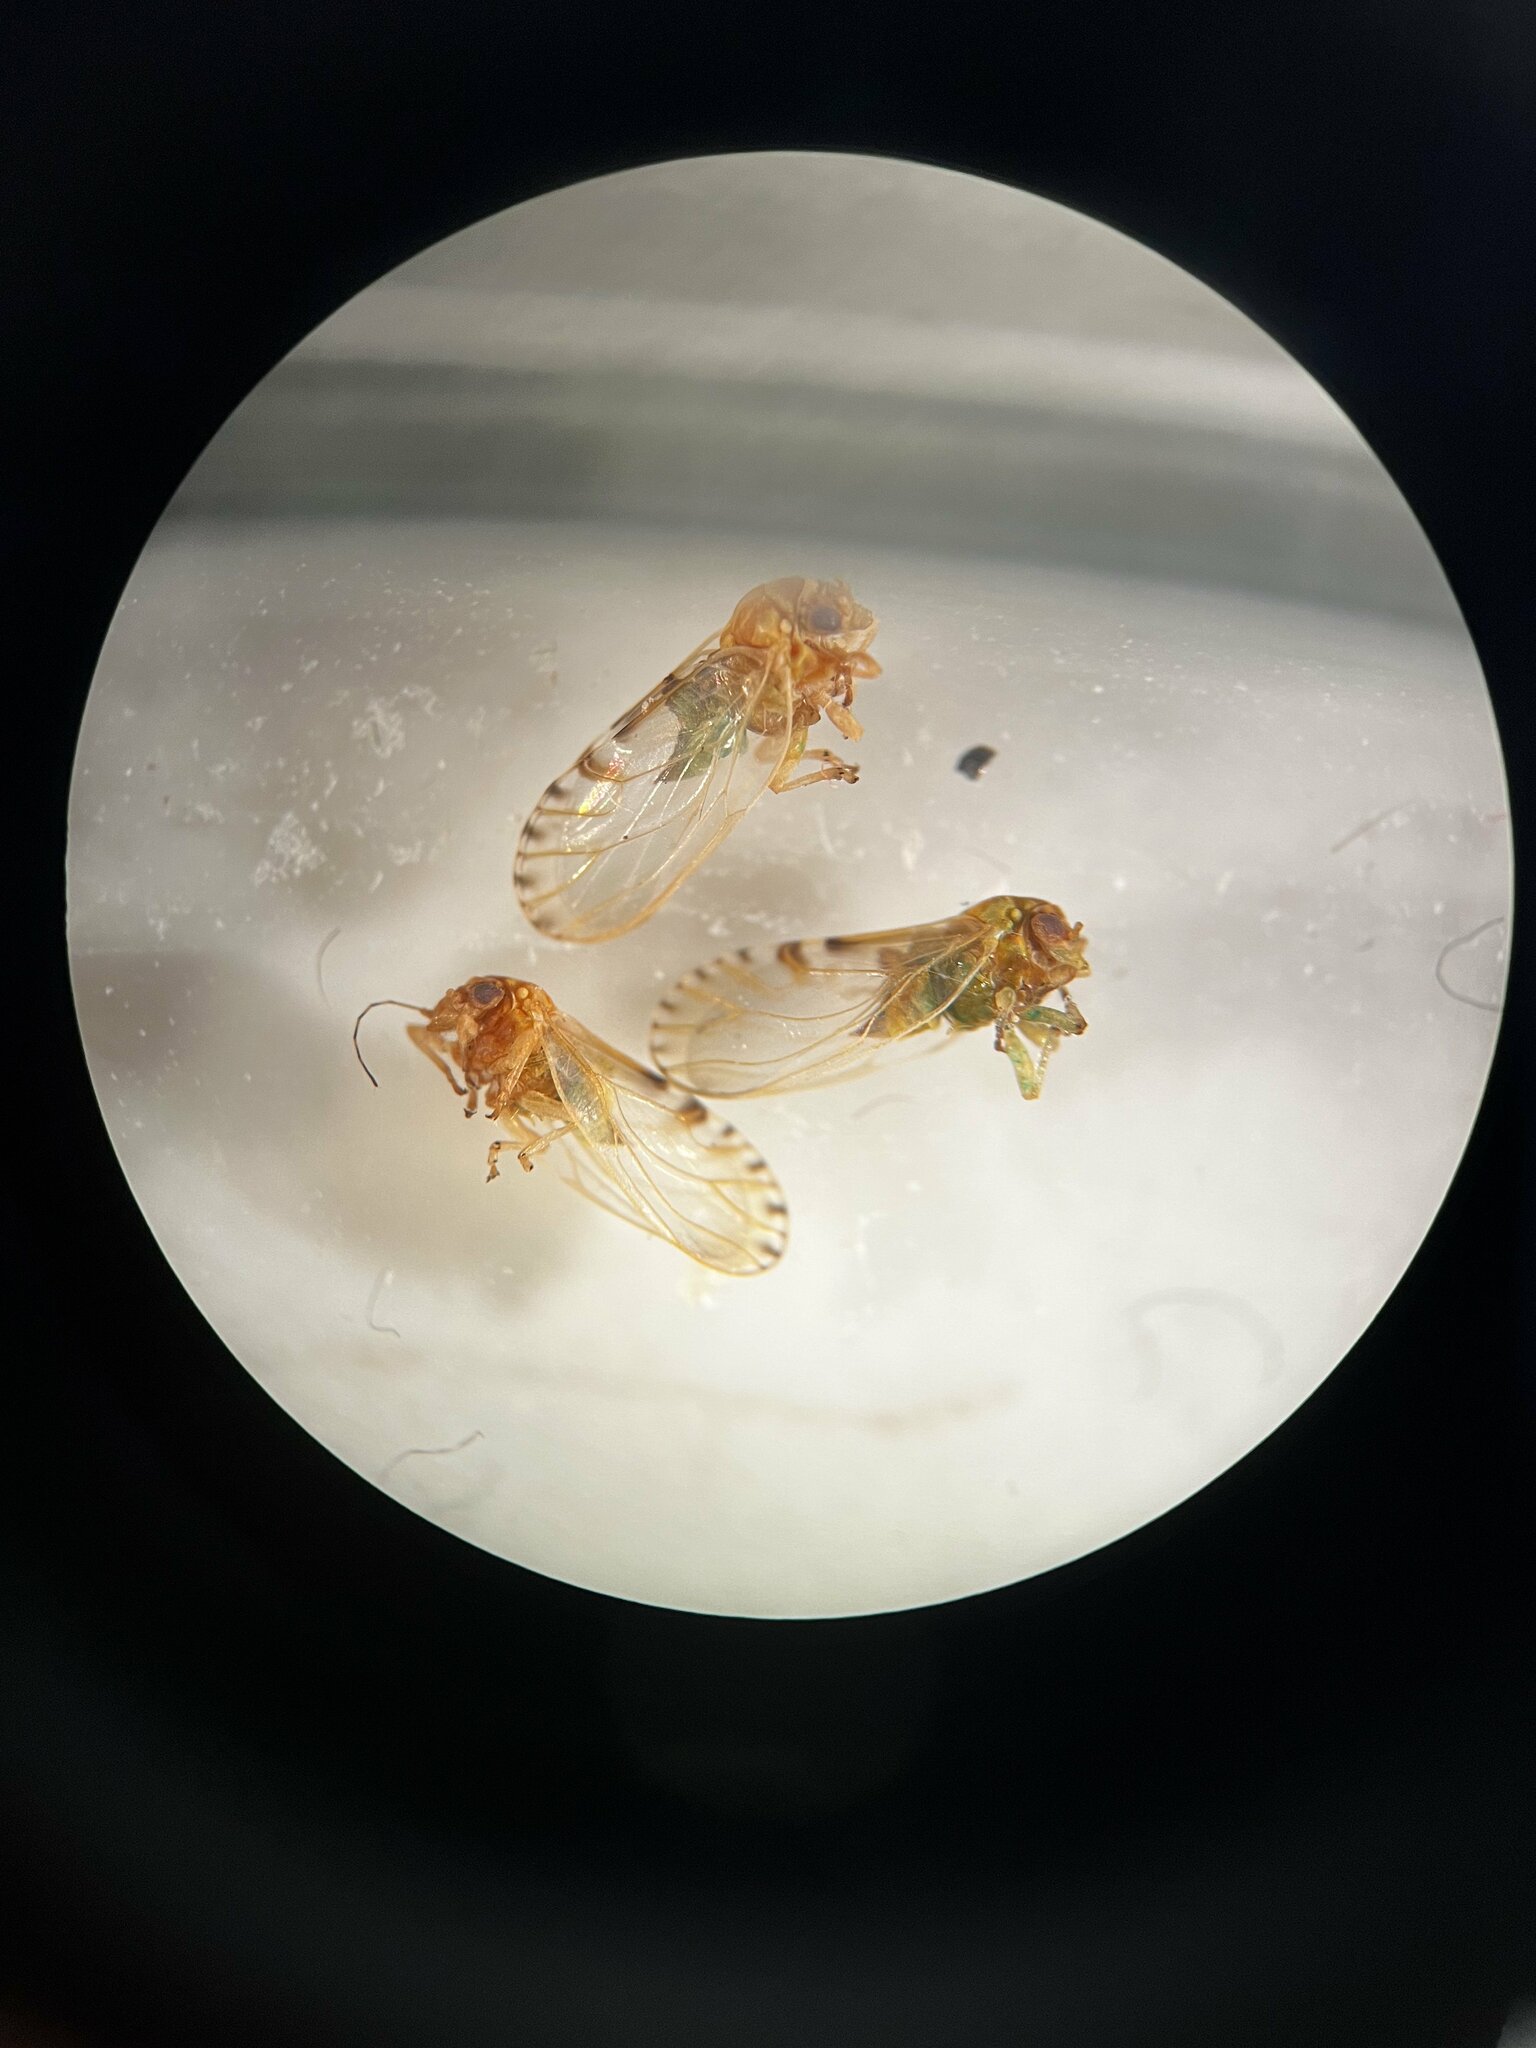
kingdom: Animalia
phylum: Arthropoda
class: Insecta
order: Hemiptera
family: Psyllidae
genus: Cacopsylla
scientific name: Cacopsylla crataegi
